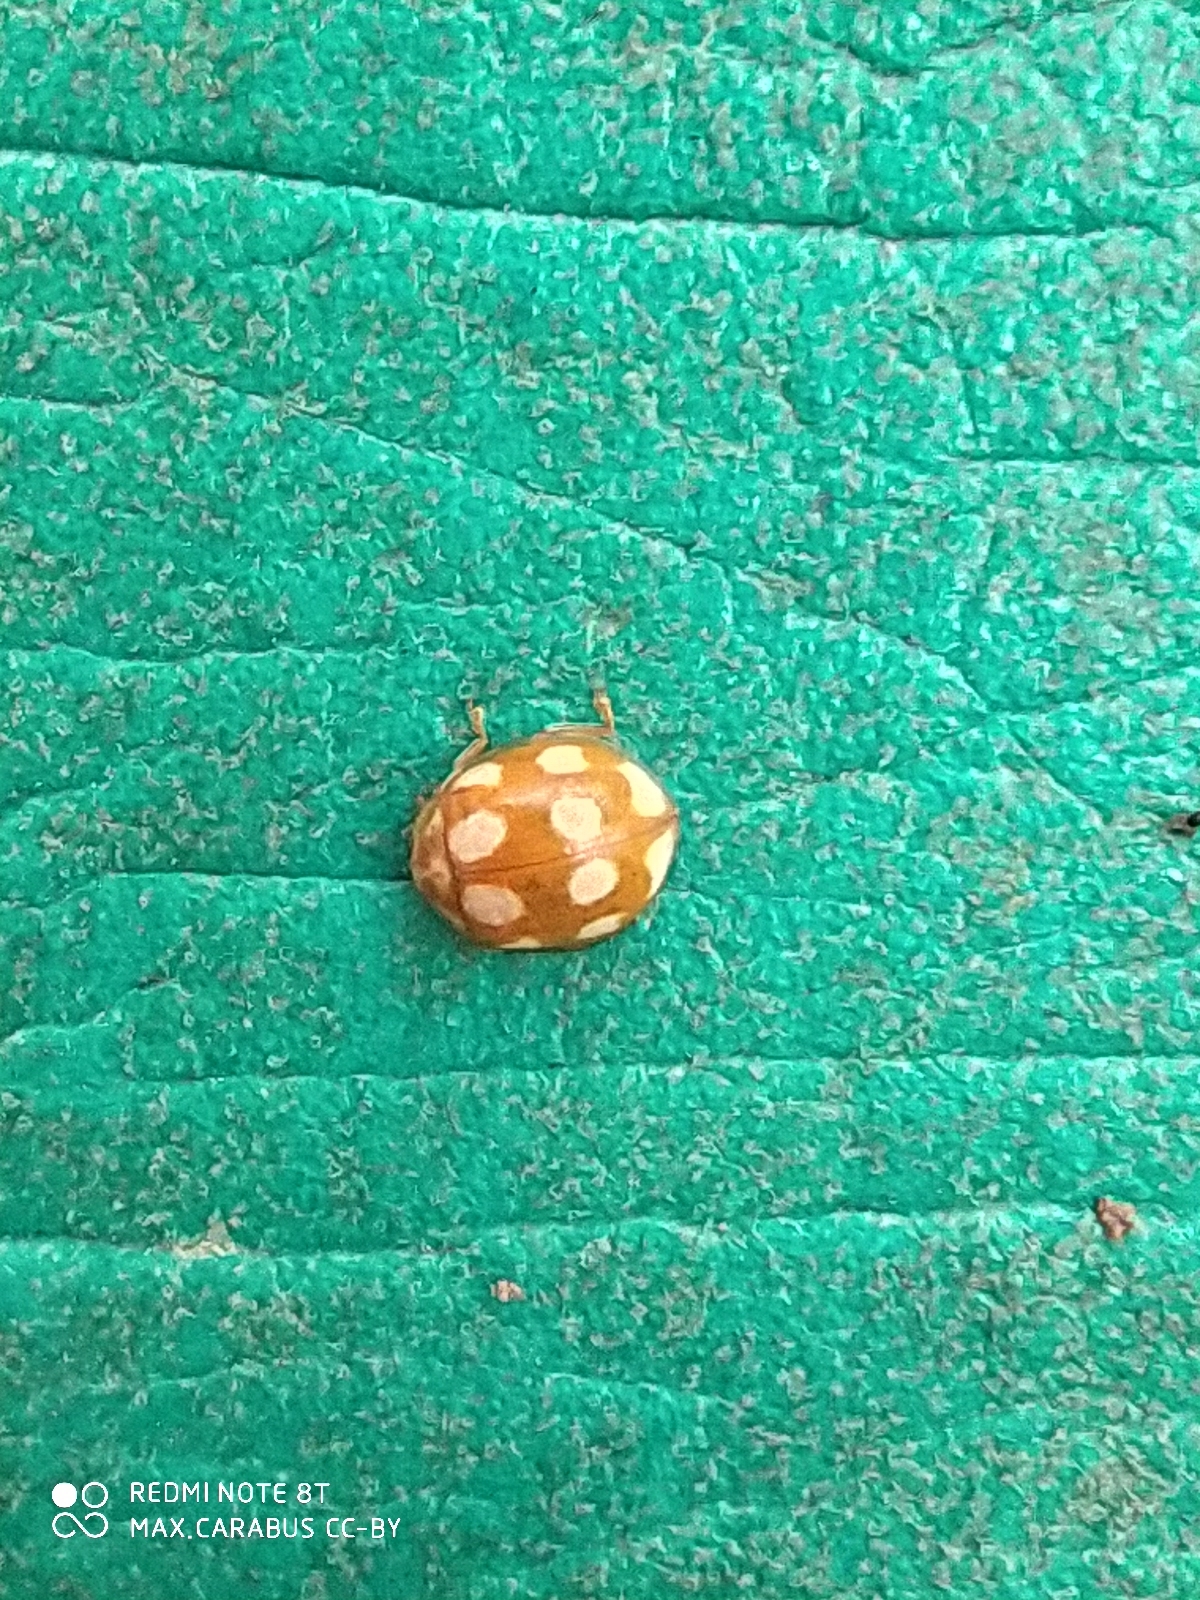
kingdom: Animalia
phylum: Arthropoda
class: Insecta
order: Coleoptera
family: Coccinellidae
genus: Calvia
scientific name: Calvia decemguttata
